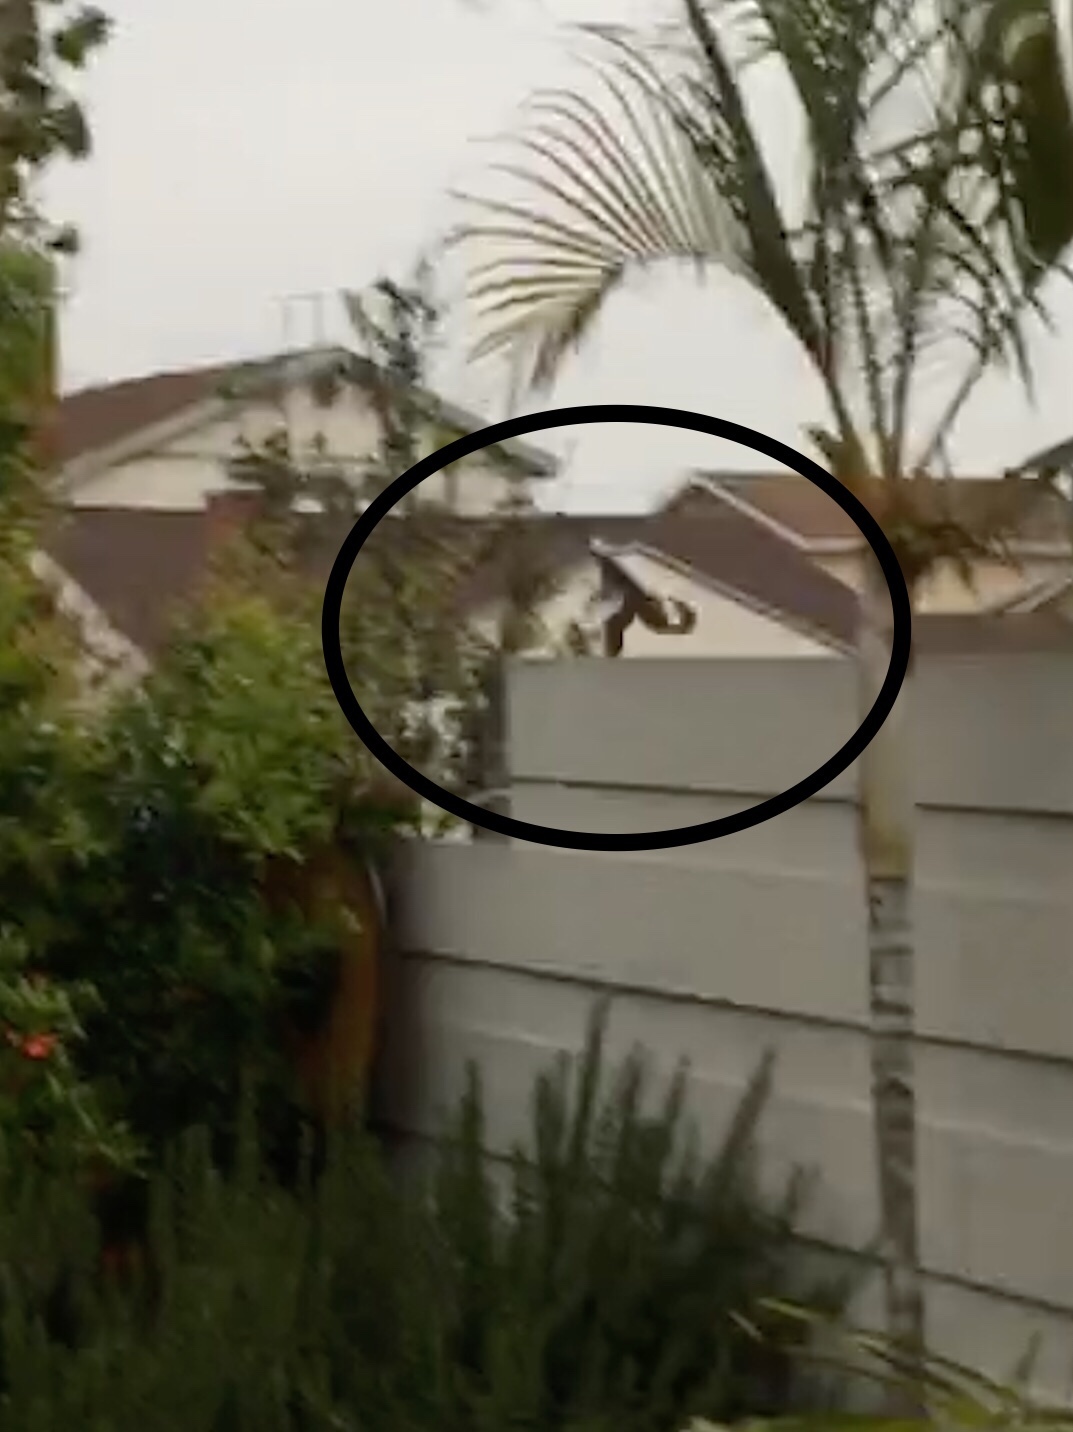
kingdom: Animalia
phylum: Chordata
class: Aves
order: Passeriformes
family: Mimidae
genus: Mimus
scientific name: Mimus polyglottos
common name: Northern mockingbird
